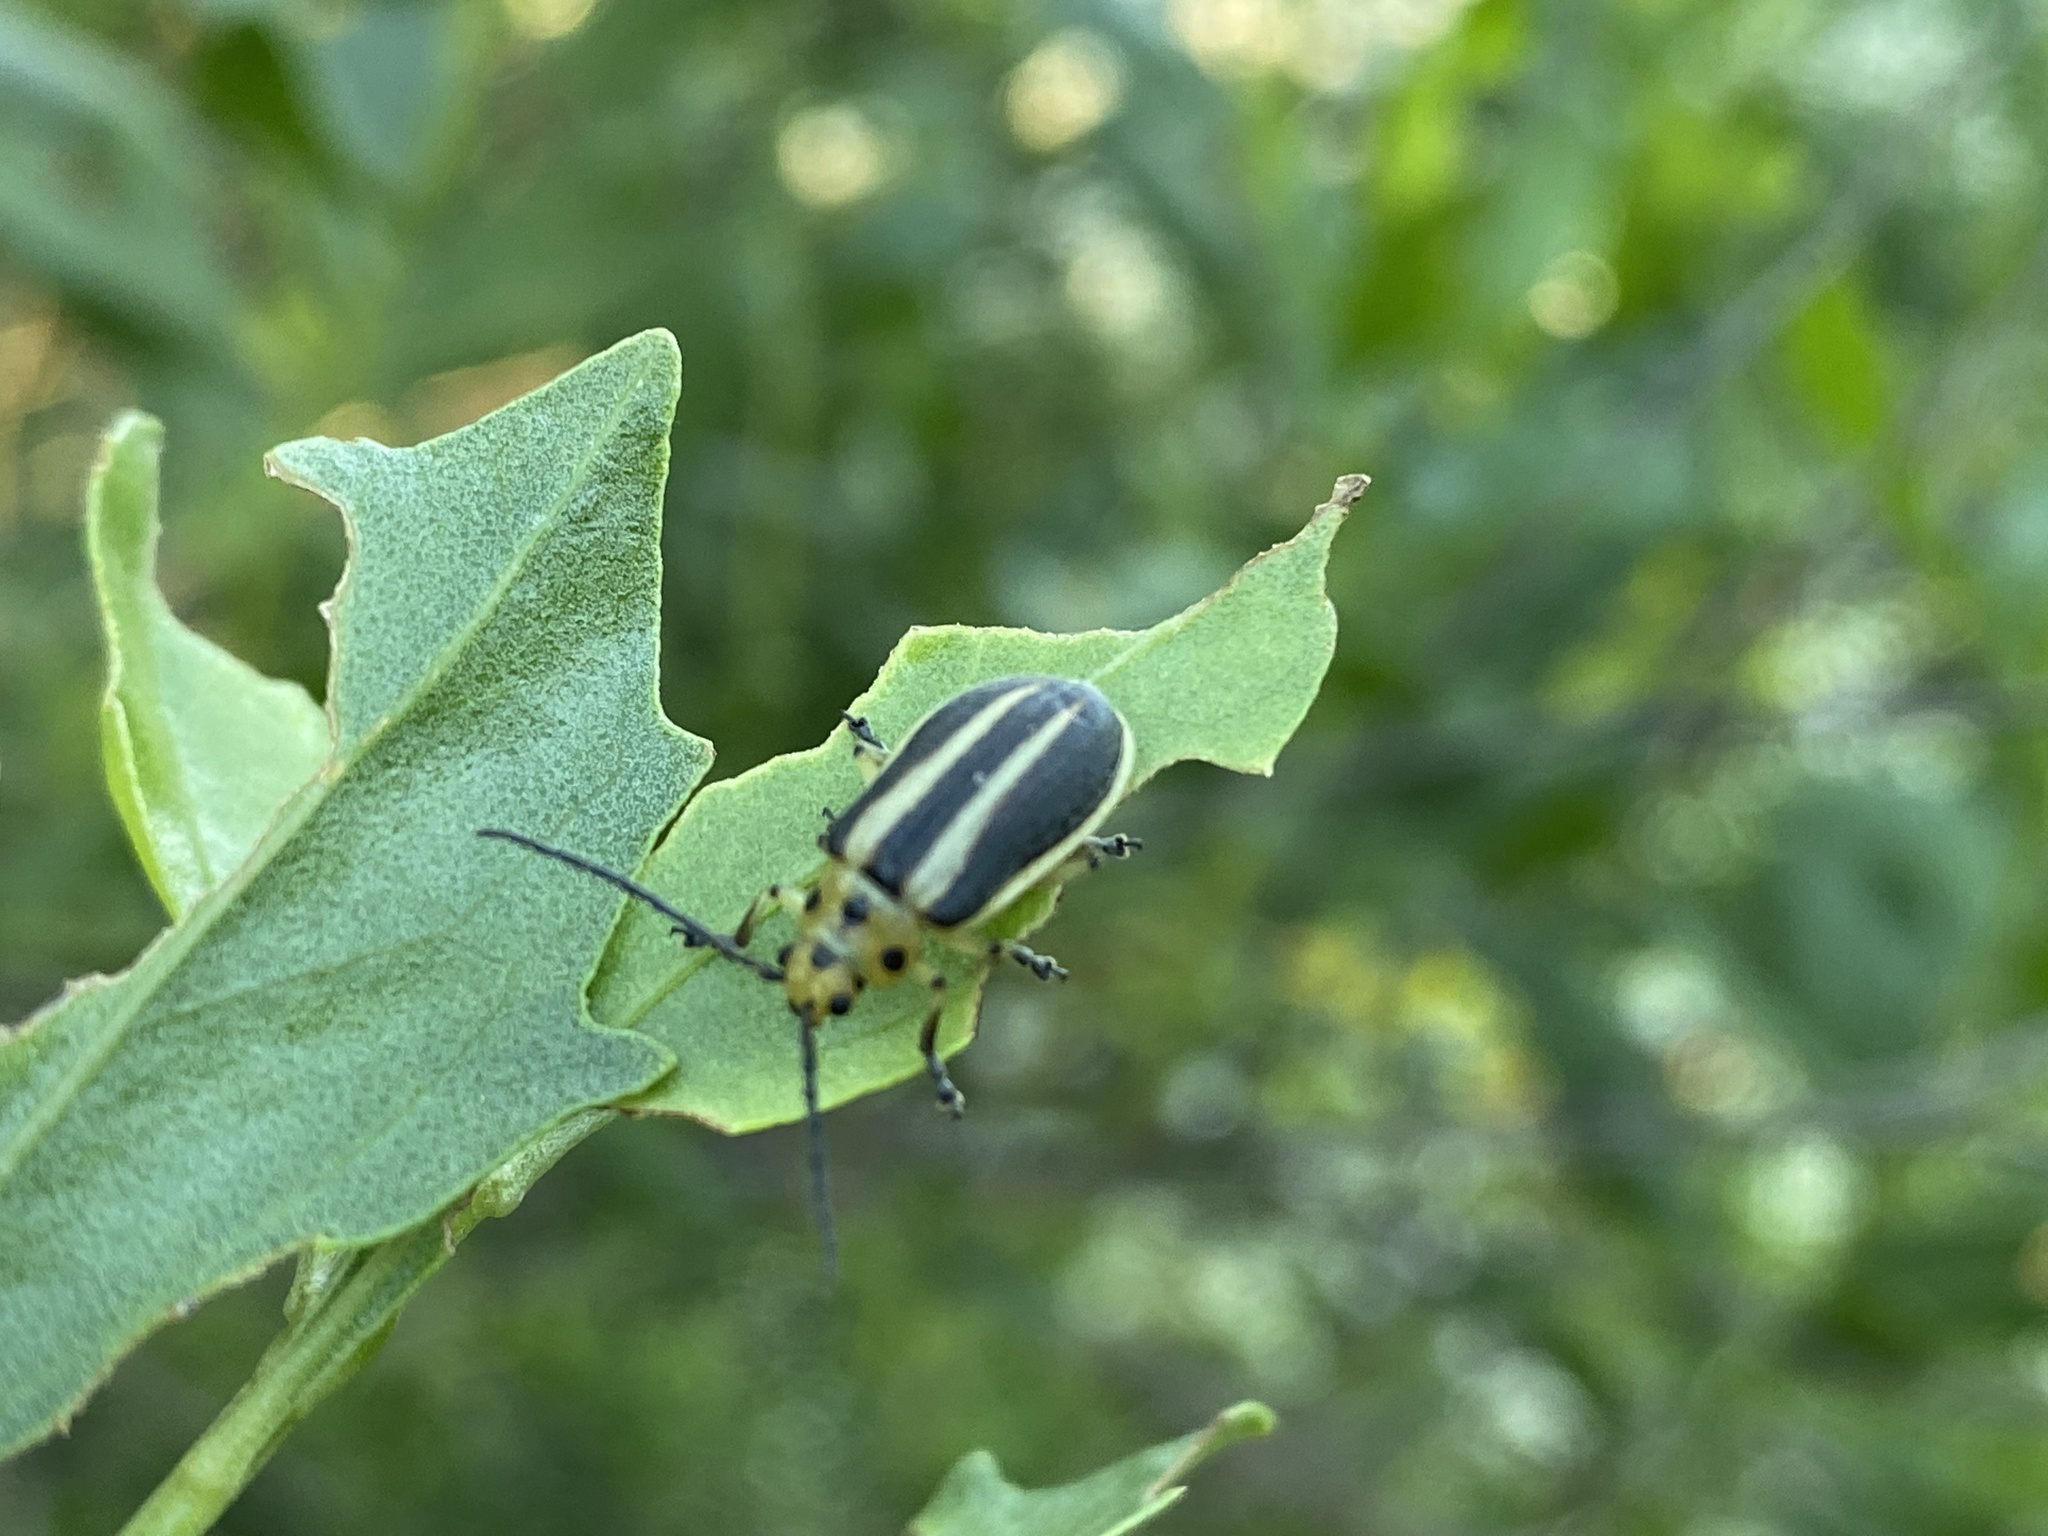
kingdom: Animalia
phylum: Arthropoda
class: Insecta
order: Coleoptera
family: Chrysomelidae
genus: Trirhabda
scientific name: Trirhabda bacharidis
